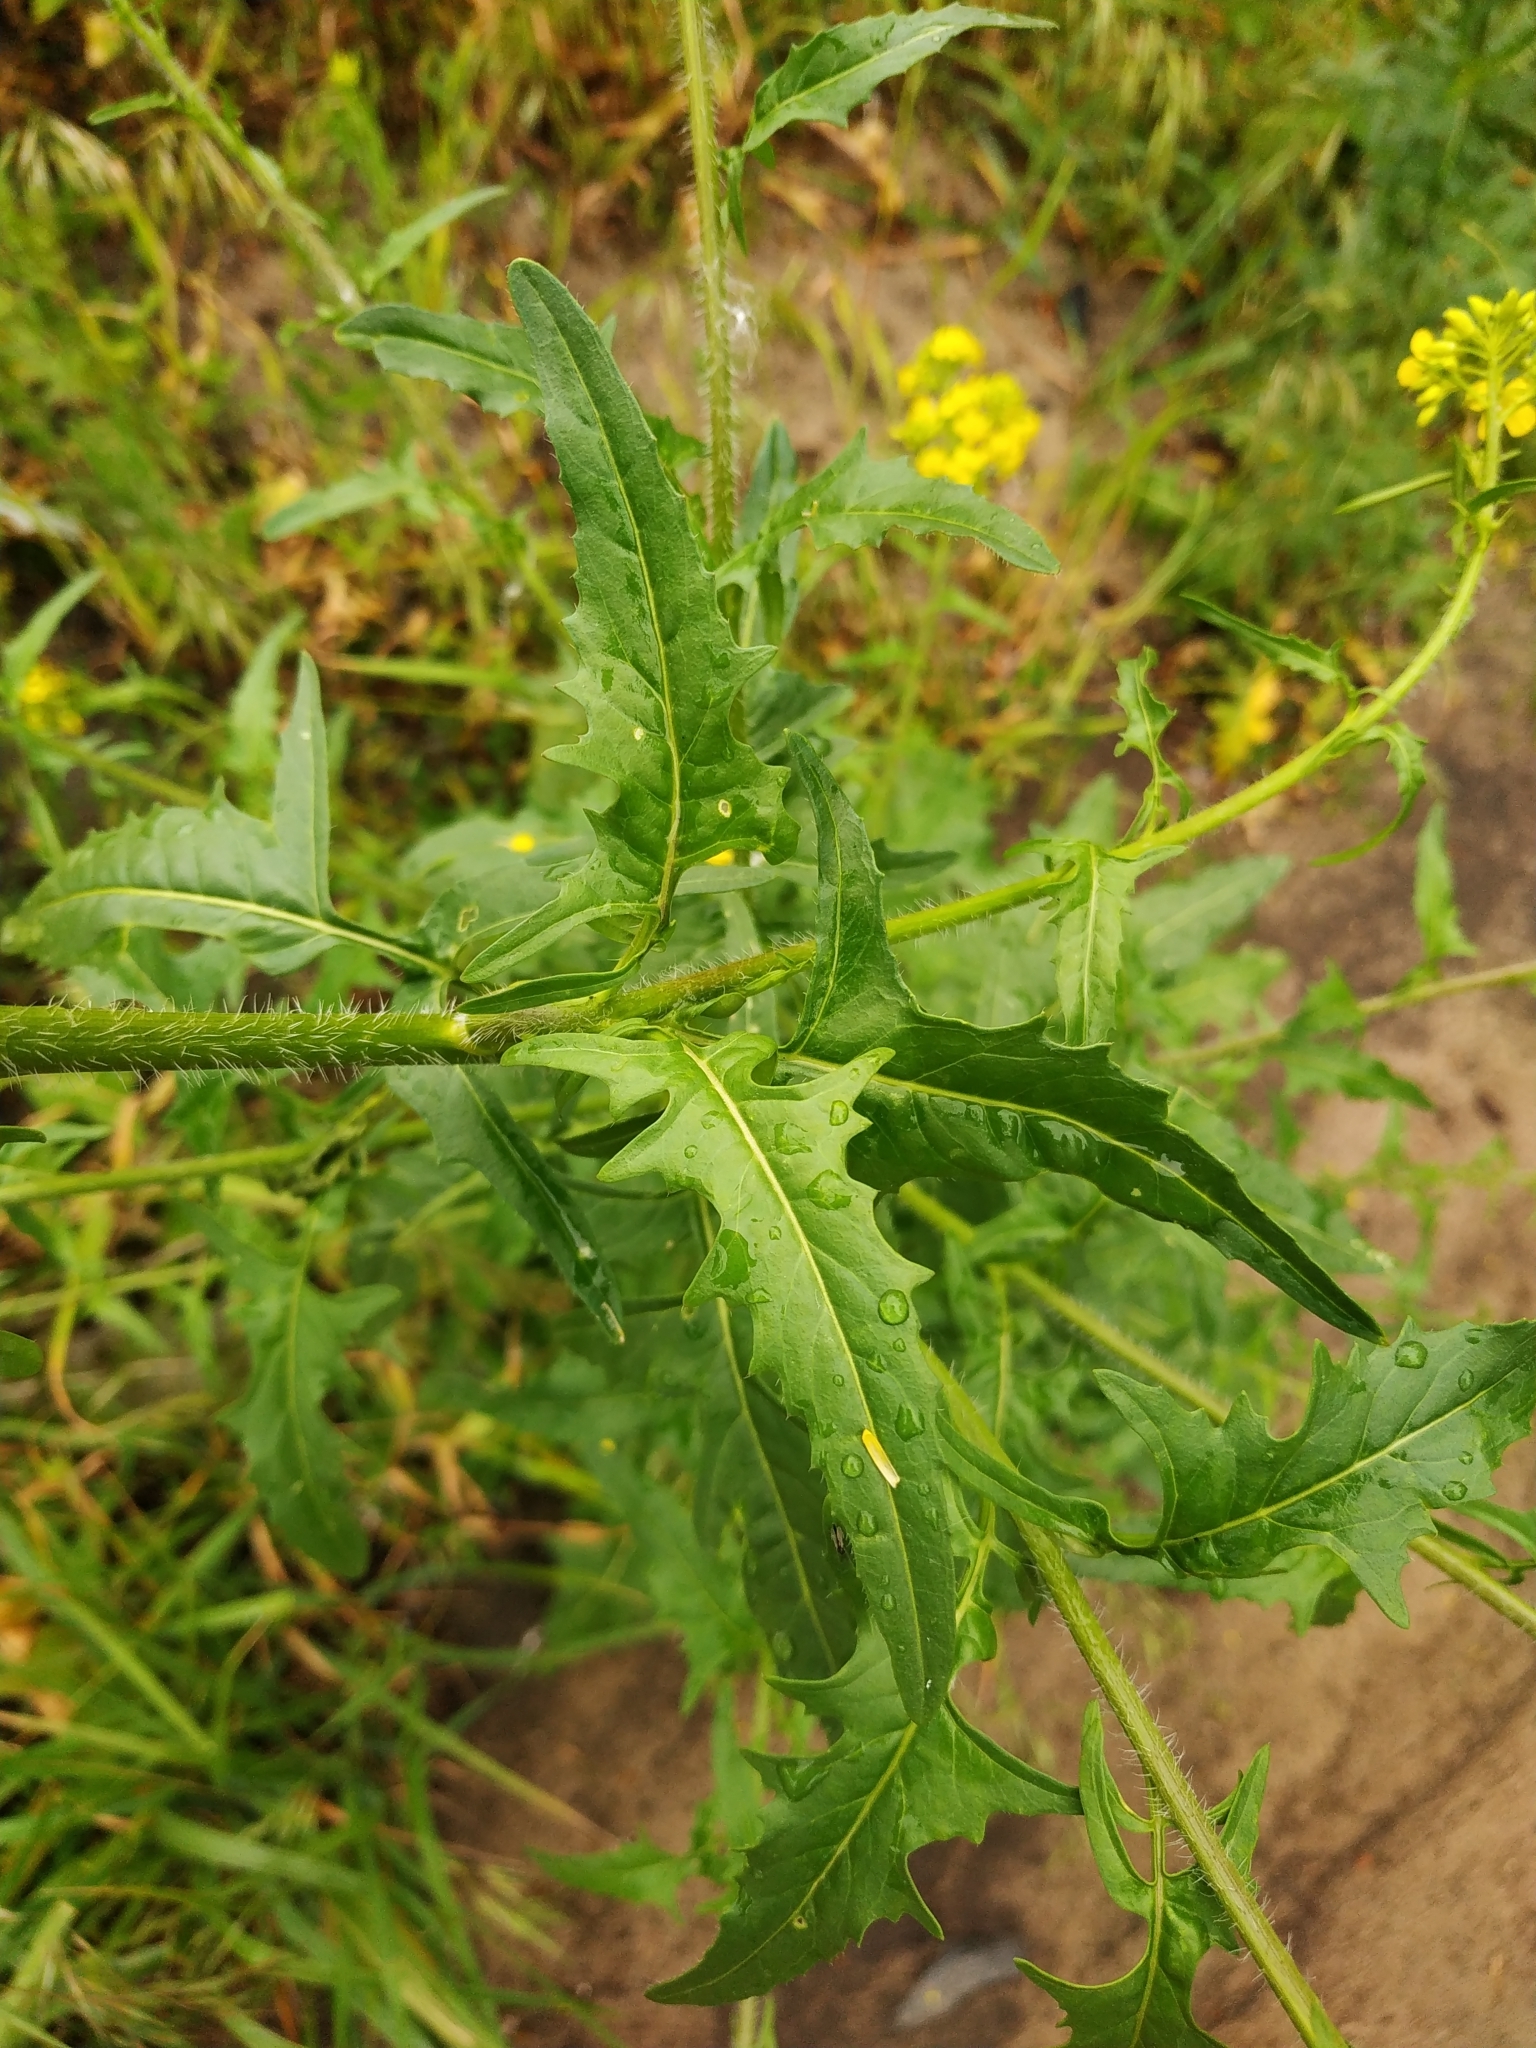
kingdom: Plantae
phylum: Tracheophyta
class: Magnoliopsida
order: Brassicales
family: Brassicaceae
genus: Sisymbrium
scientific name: Sisymbrium loeselii
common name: False london-rocket
